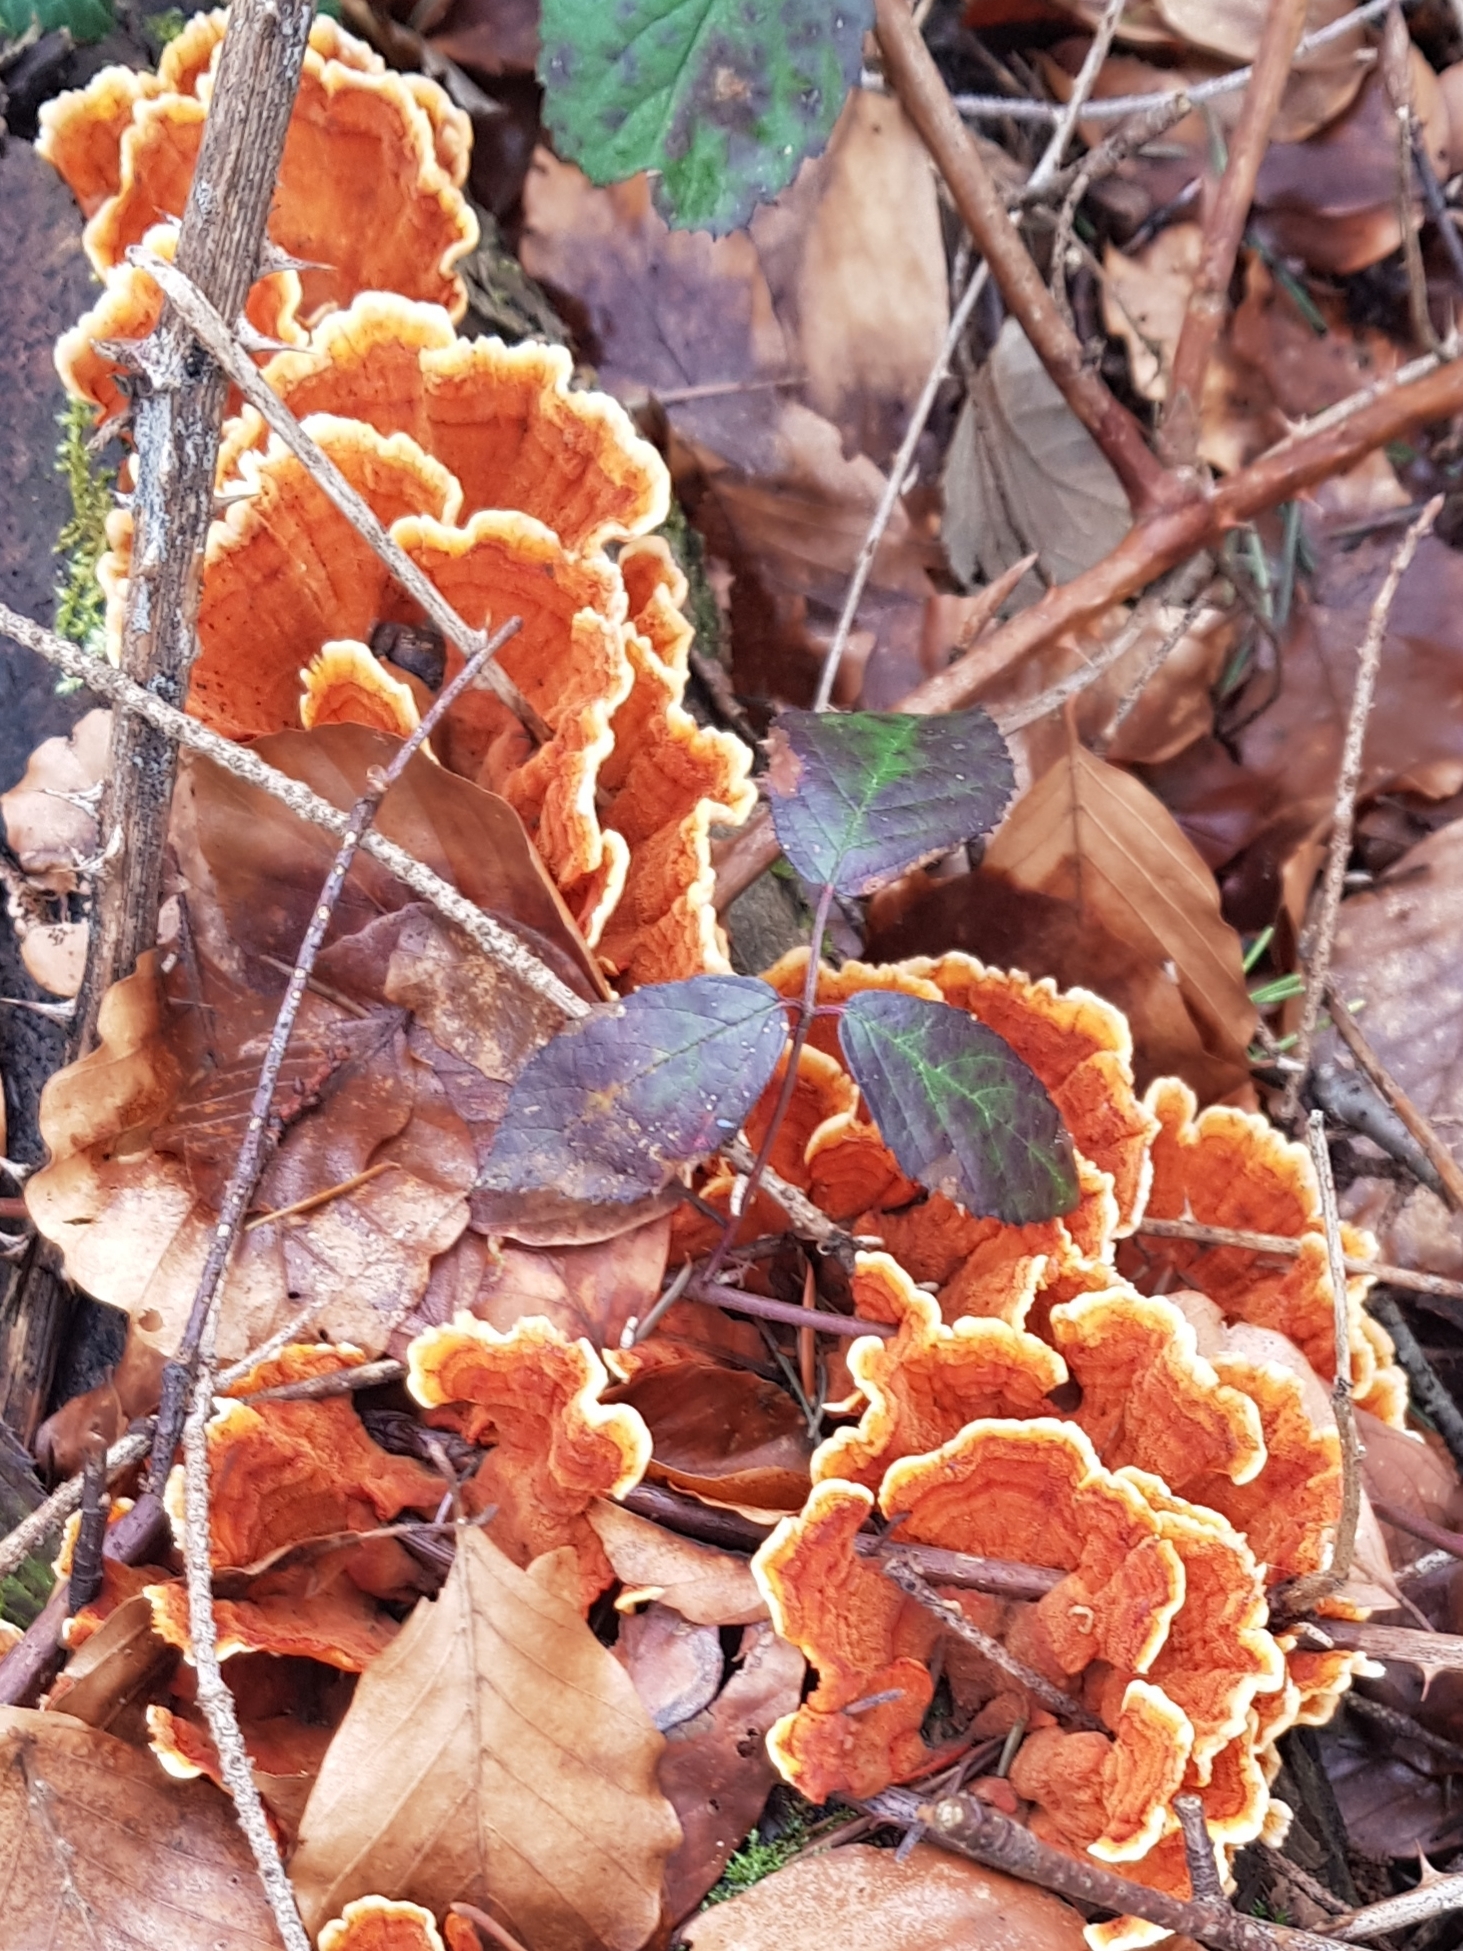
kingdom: Fungi
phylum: Basidiomycota
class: Agaricomycetes
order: Russulales
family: Stereaceae
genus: Stereum
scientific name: Stereum insignitum
